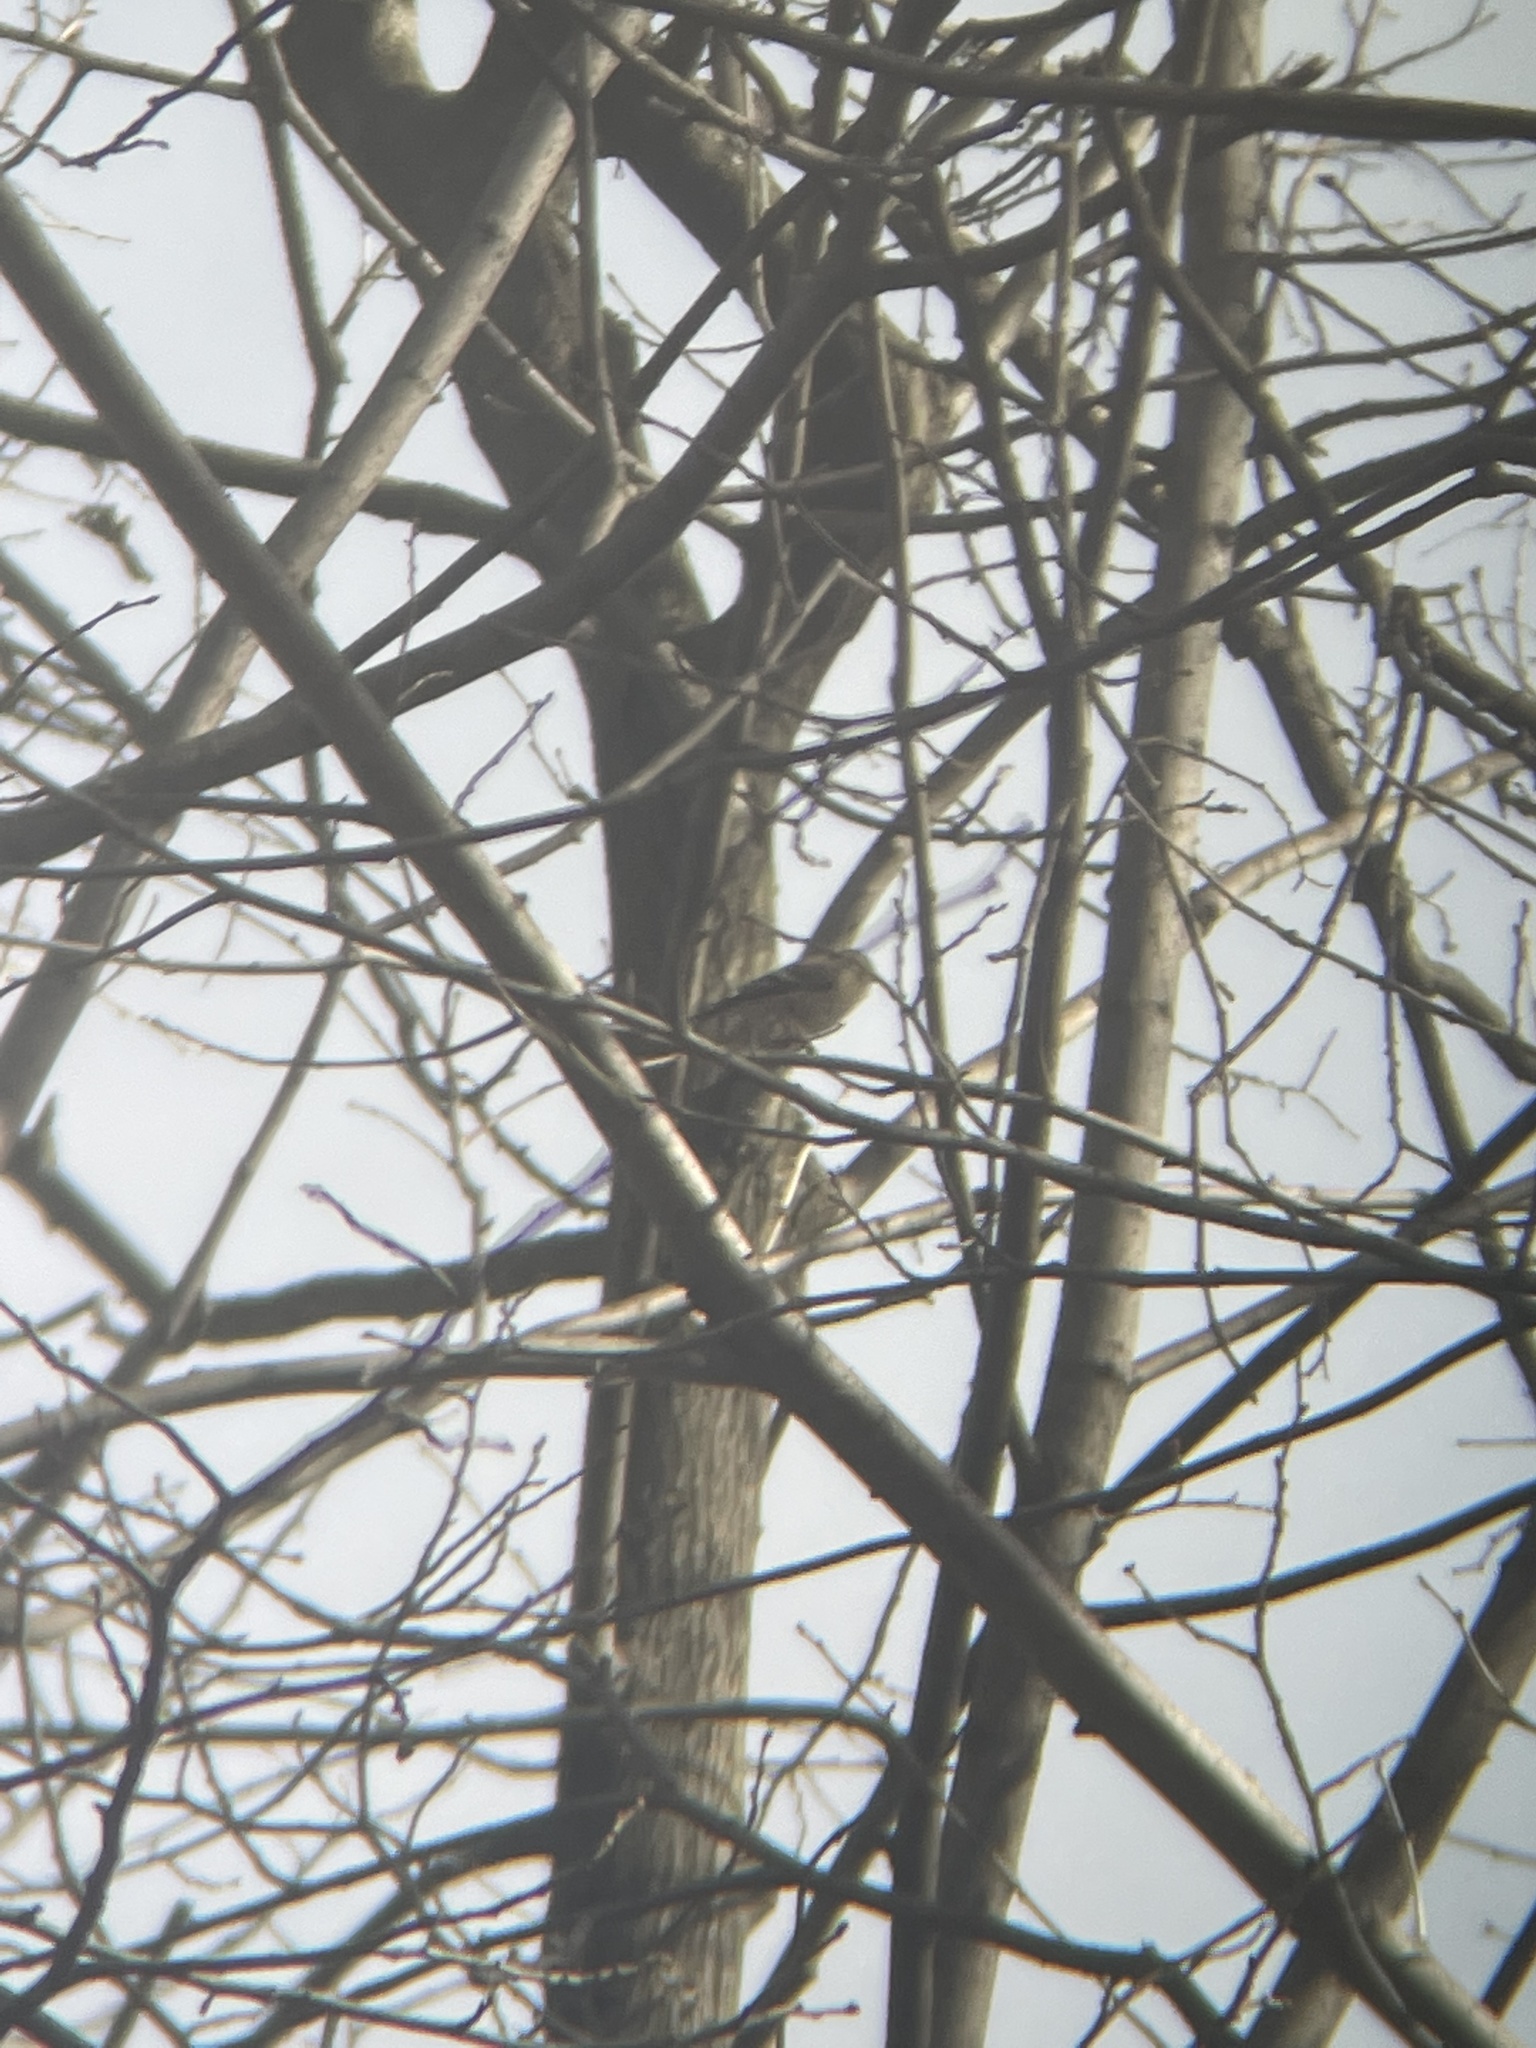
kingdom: Animalia
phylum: Chordata
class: Aves
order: Passeriformes
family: Fringillidae
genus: Spinus
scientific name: Spinus tristis
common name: American goldfinch
